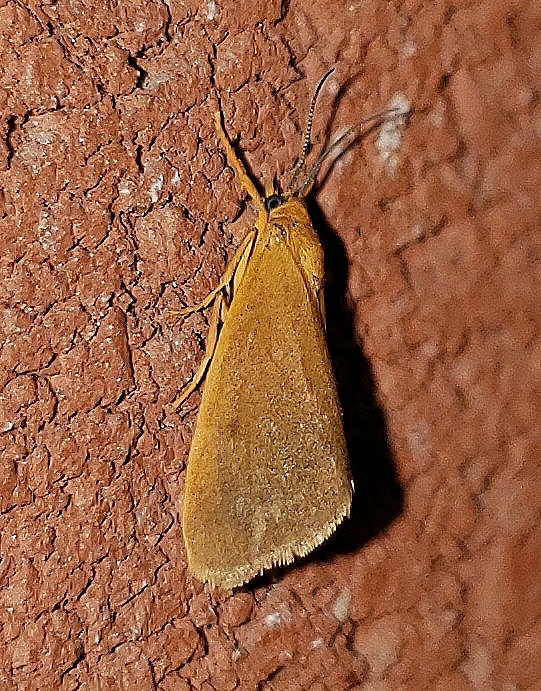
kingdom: Animalia
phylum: Arthropoda
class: Insecta
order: Lepidoptera
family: Erebidae
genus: Virbia
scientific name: Virbia aurantiaca
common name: Orange virbia moth
